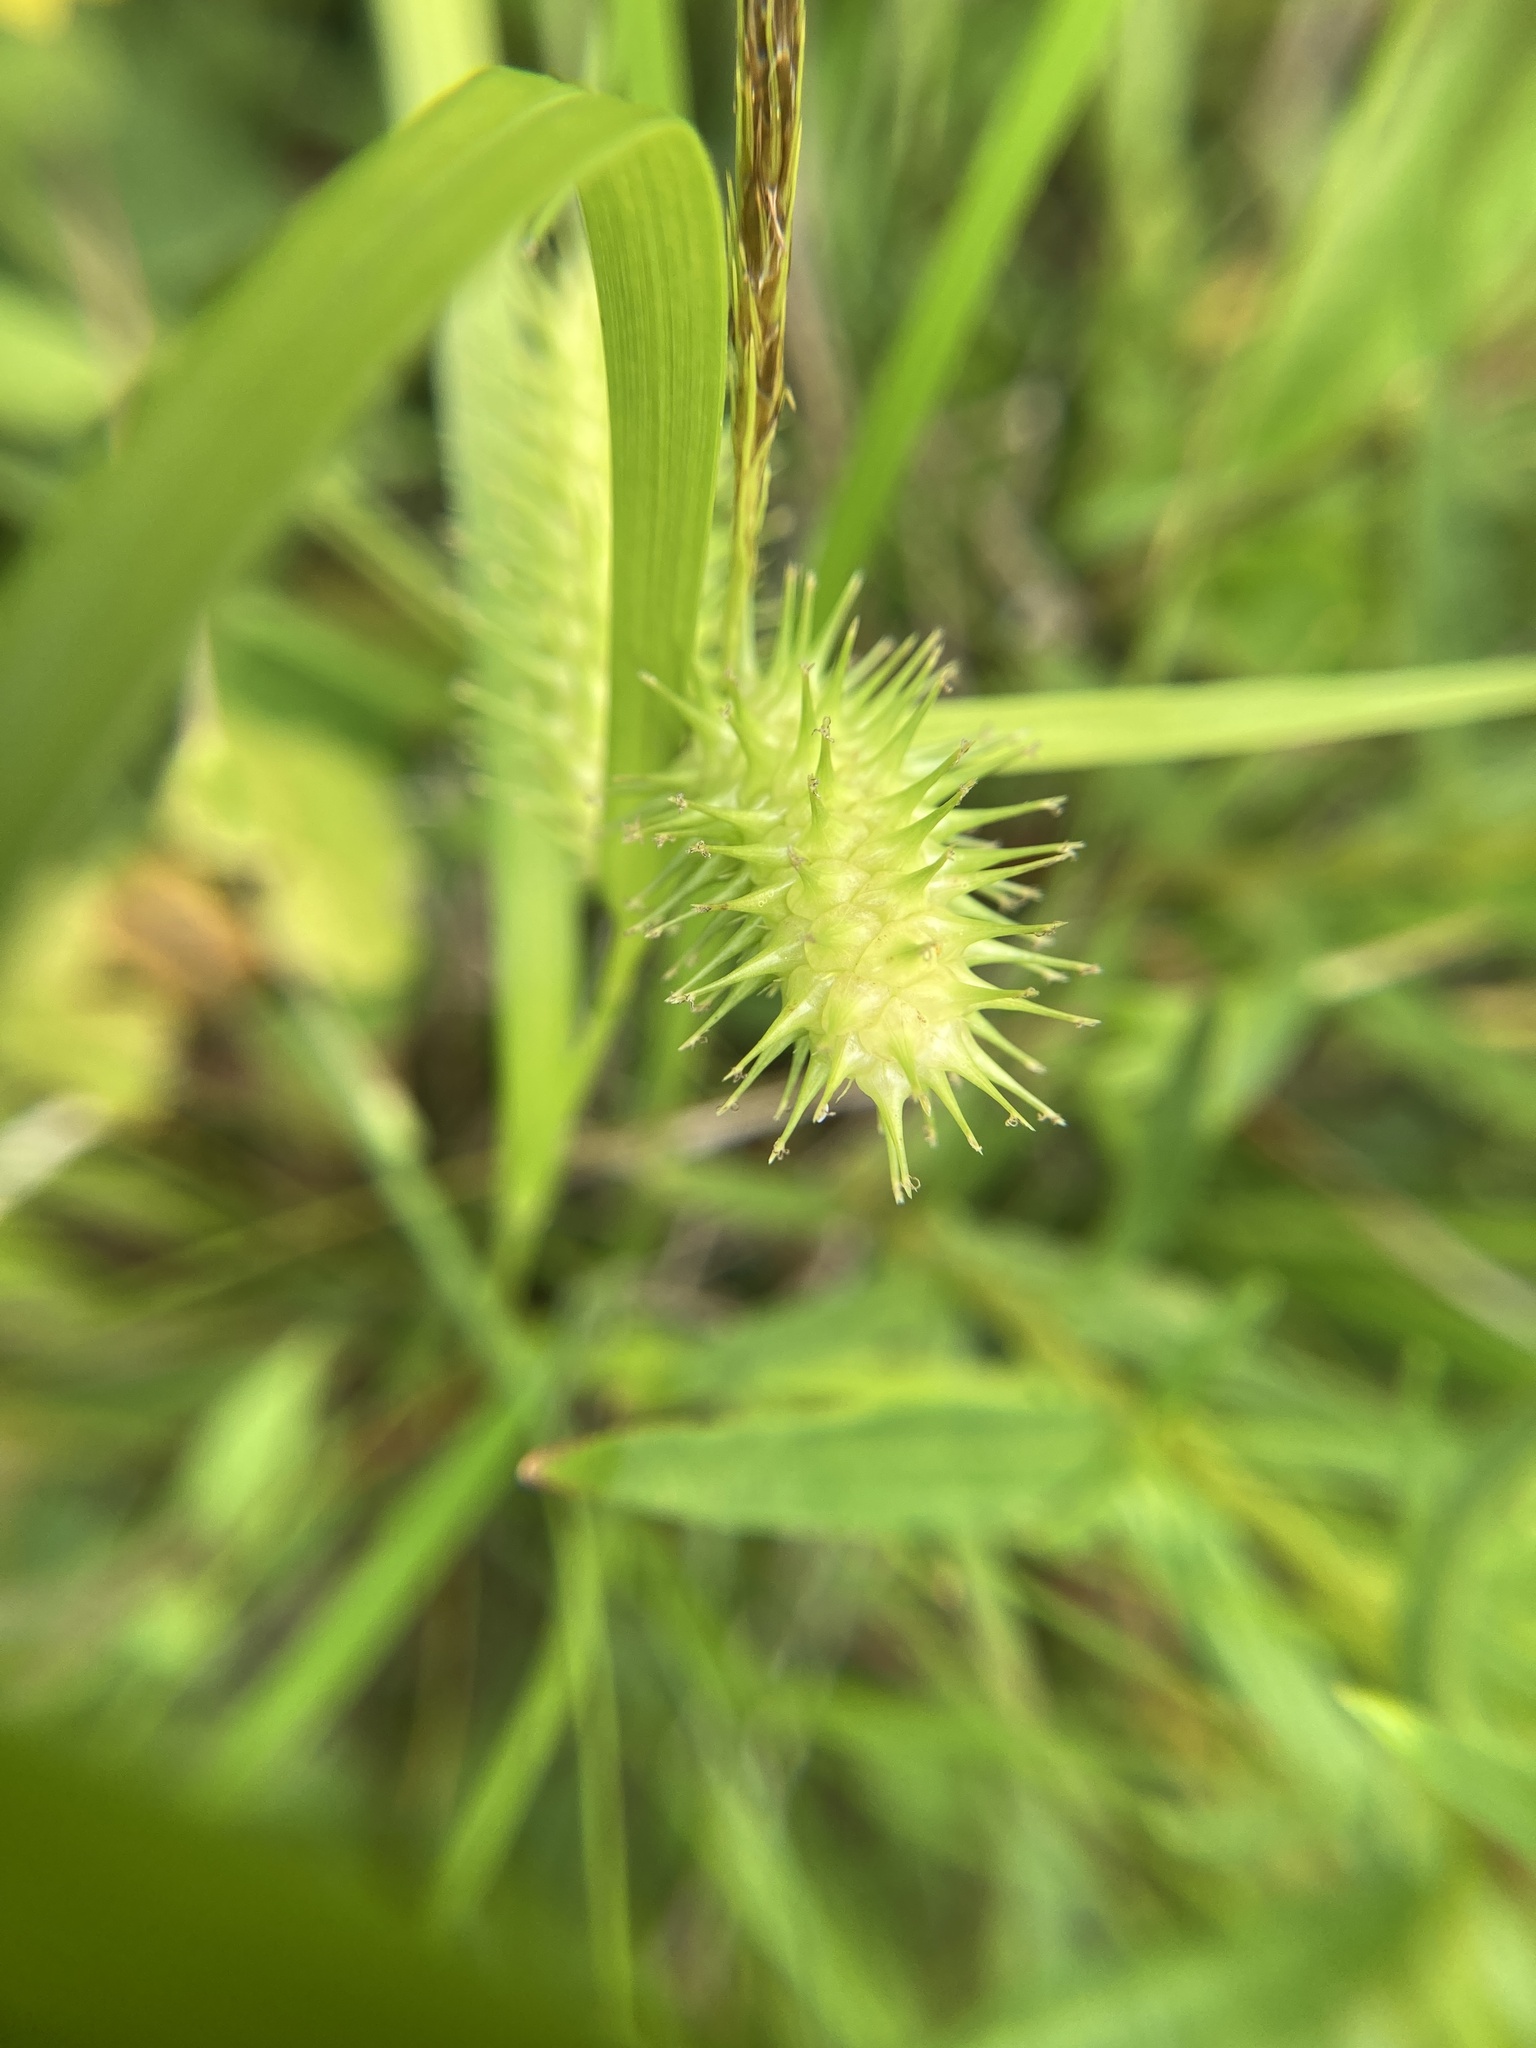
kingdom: Plantae
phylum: Tracheophyta
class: Liliopsida
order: Poales
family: Cyperaceae
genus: Carex
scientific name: Carex lurida
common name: Sallow sedge
